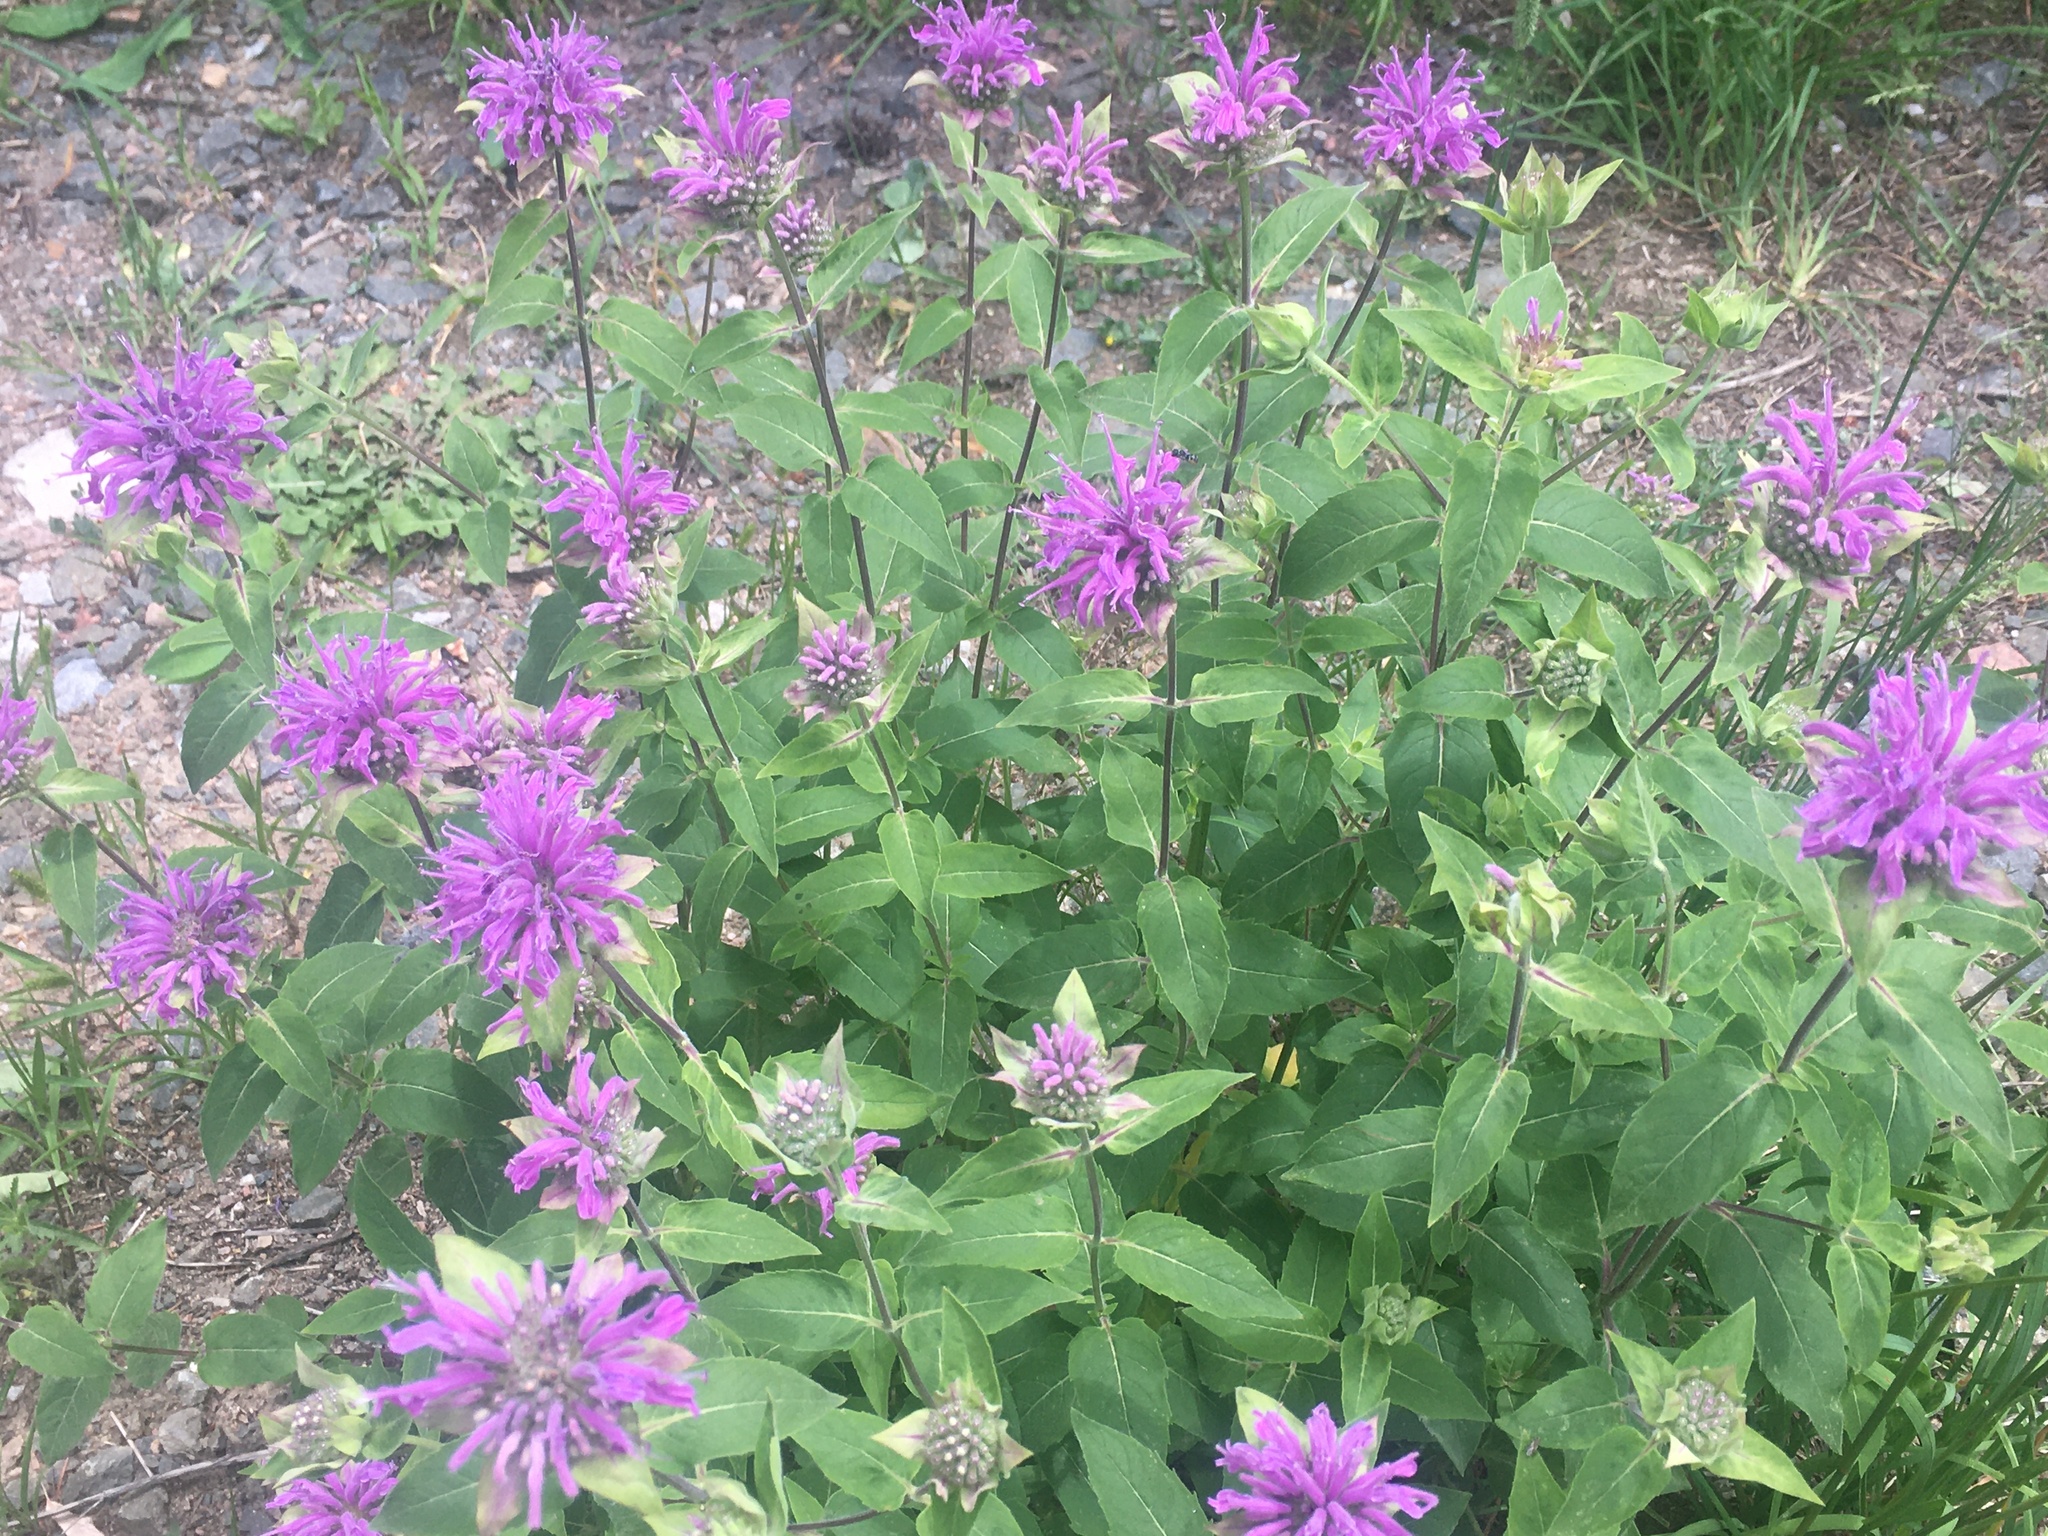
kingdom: Plantae
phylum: Tracheophyta
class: Magnoliopsida
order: Lamiales
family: Lamiaceae
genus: Monarda
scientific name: Monarda fistulosa
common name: Purple beebalm
